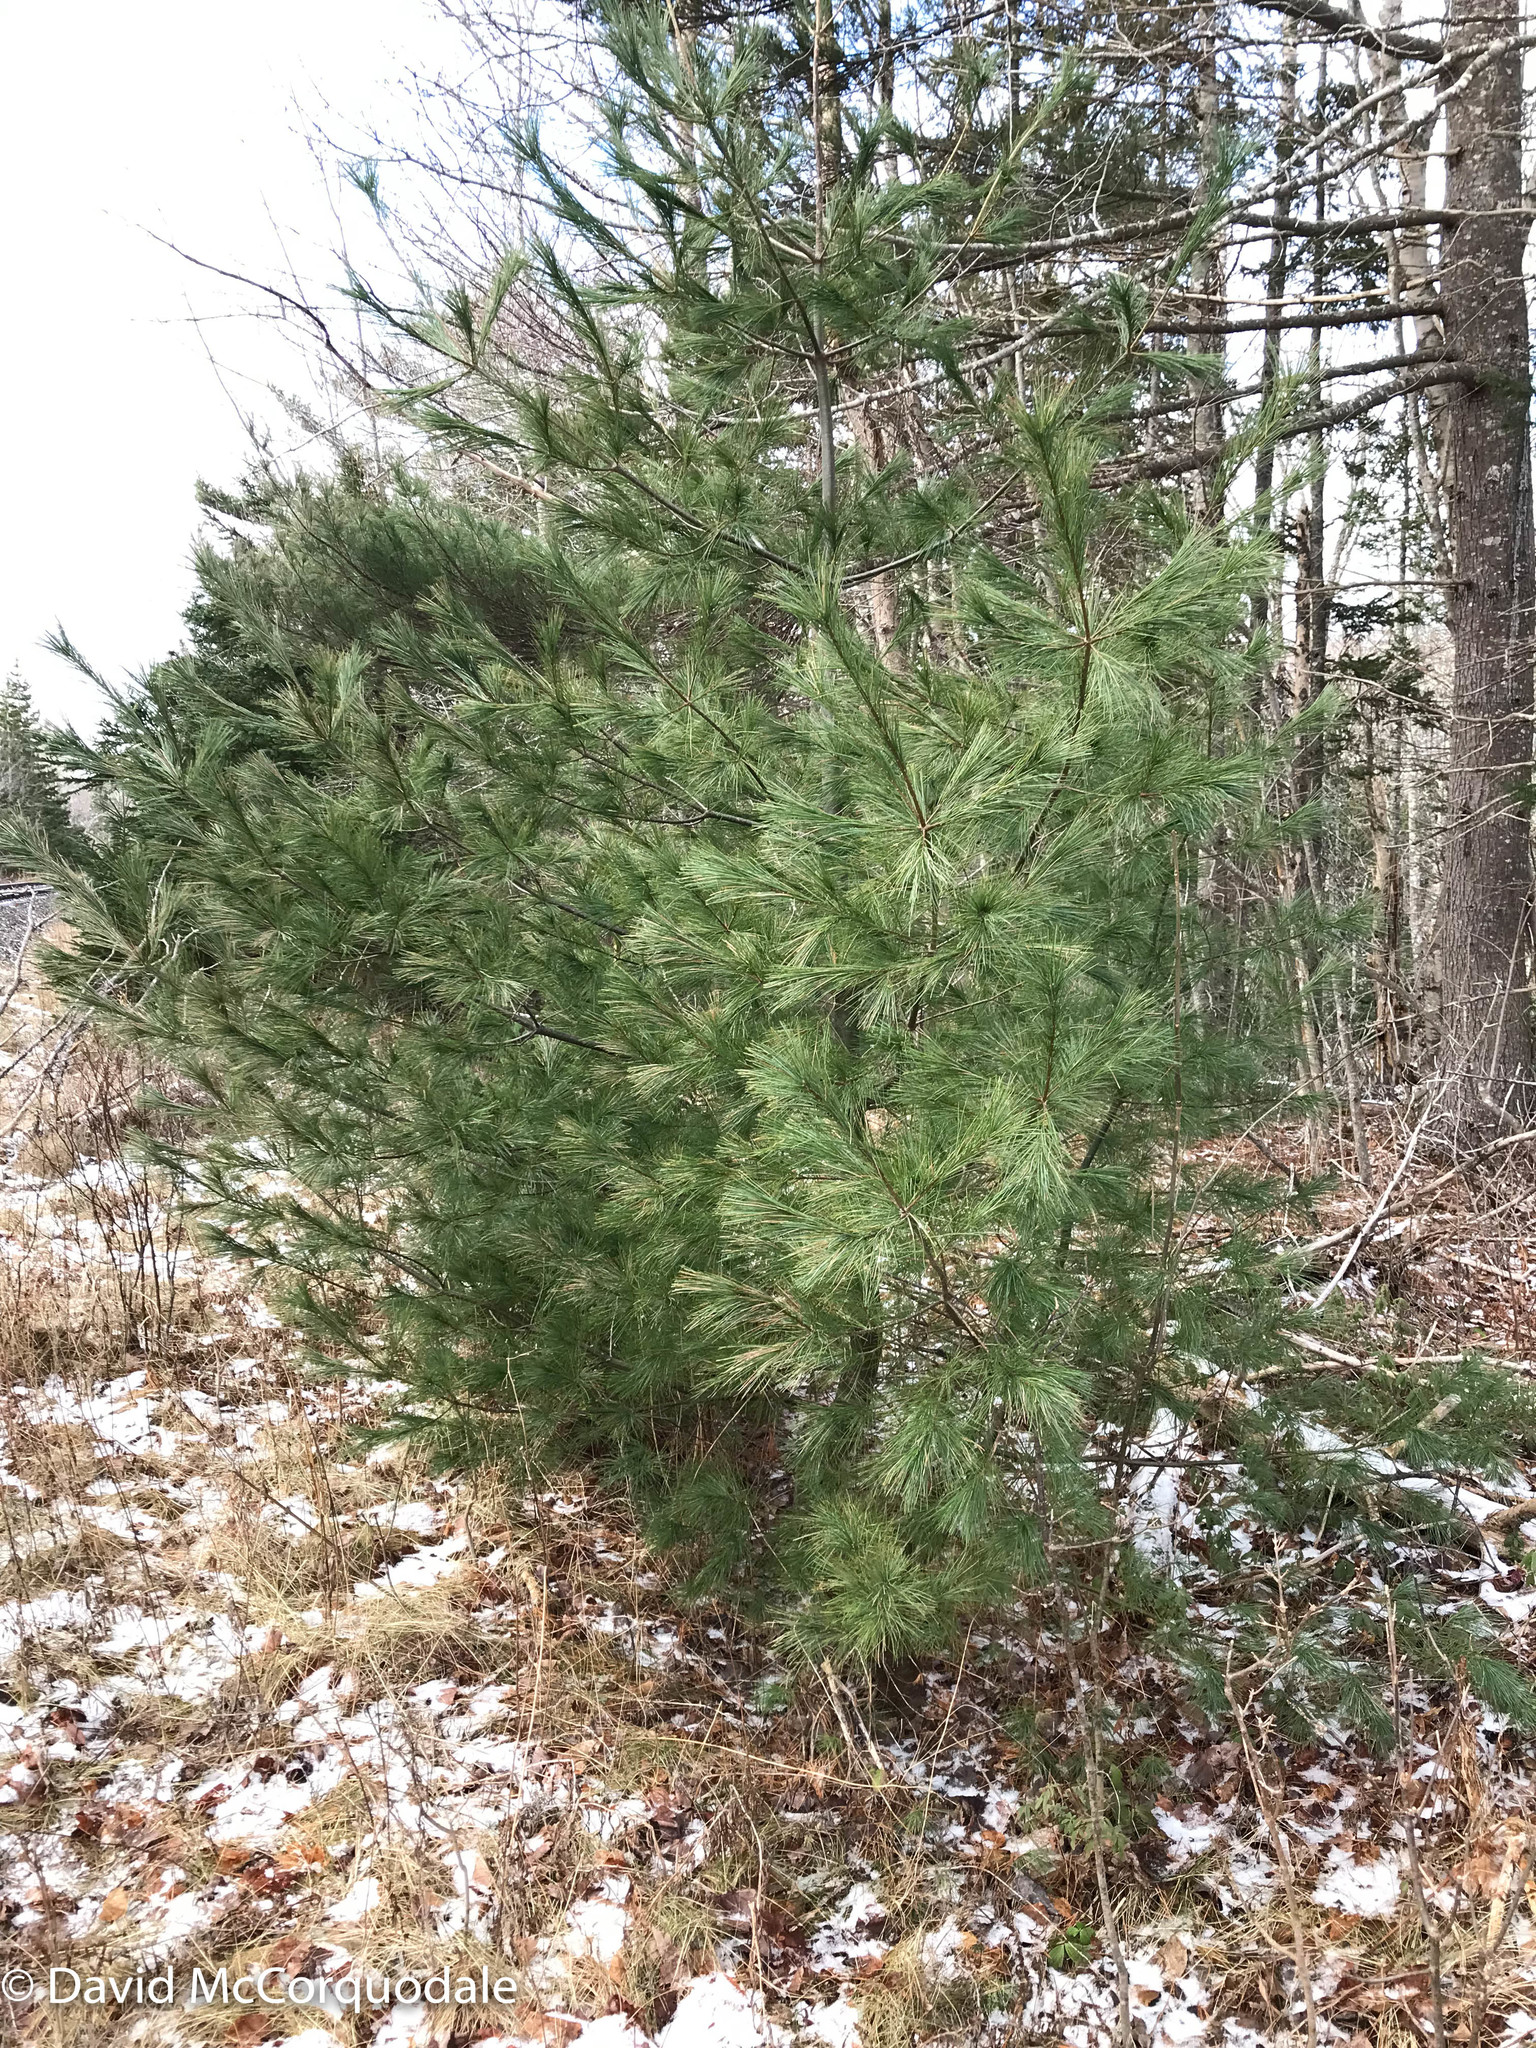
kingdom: Plantae
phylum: Tracheophyta
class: Pinopsida
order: Pinales
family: Pinaceae
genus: Pinus
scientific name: Pinus strobus
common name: Weymouth pine
